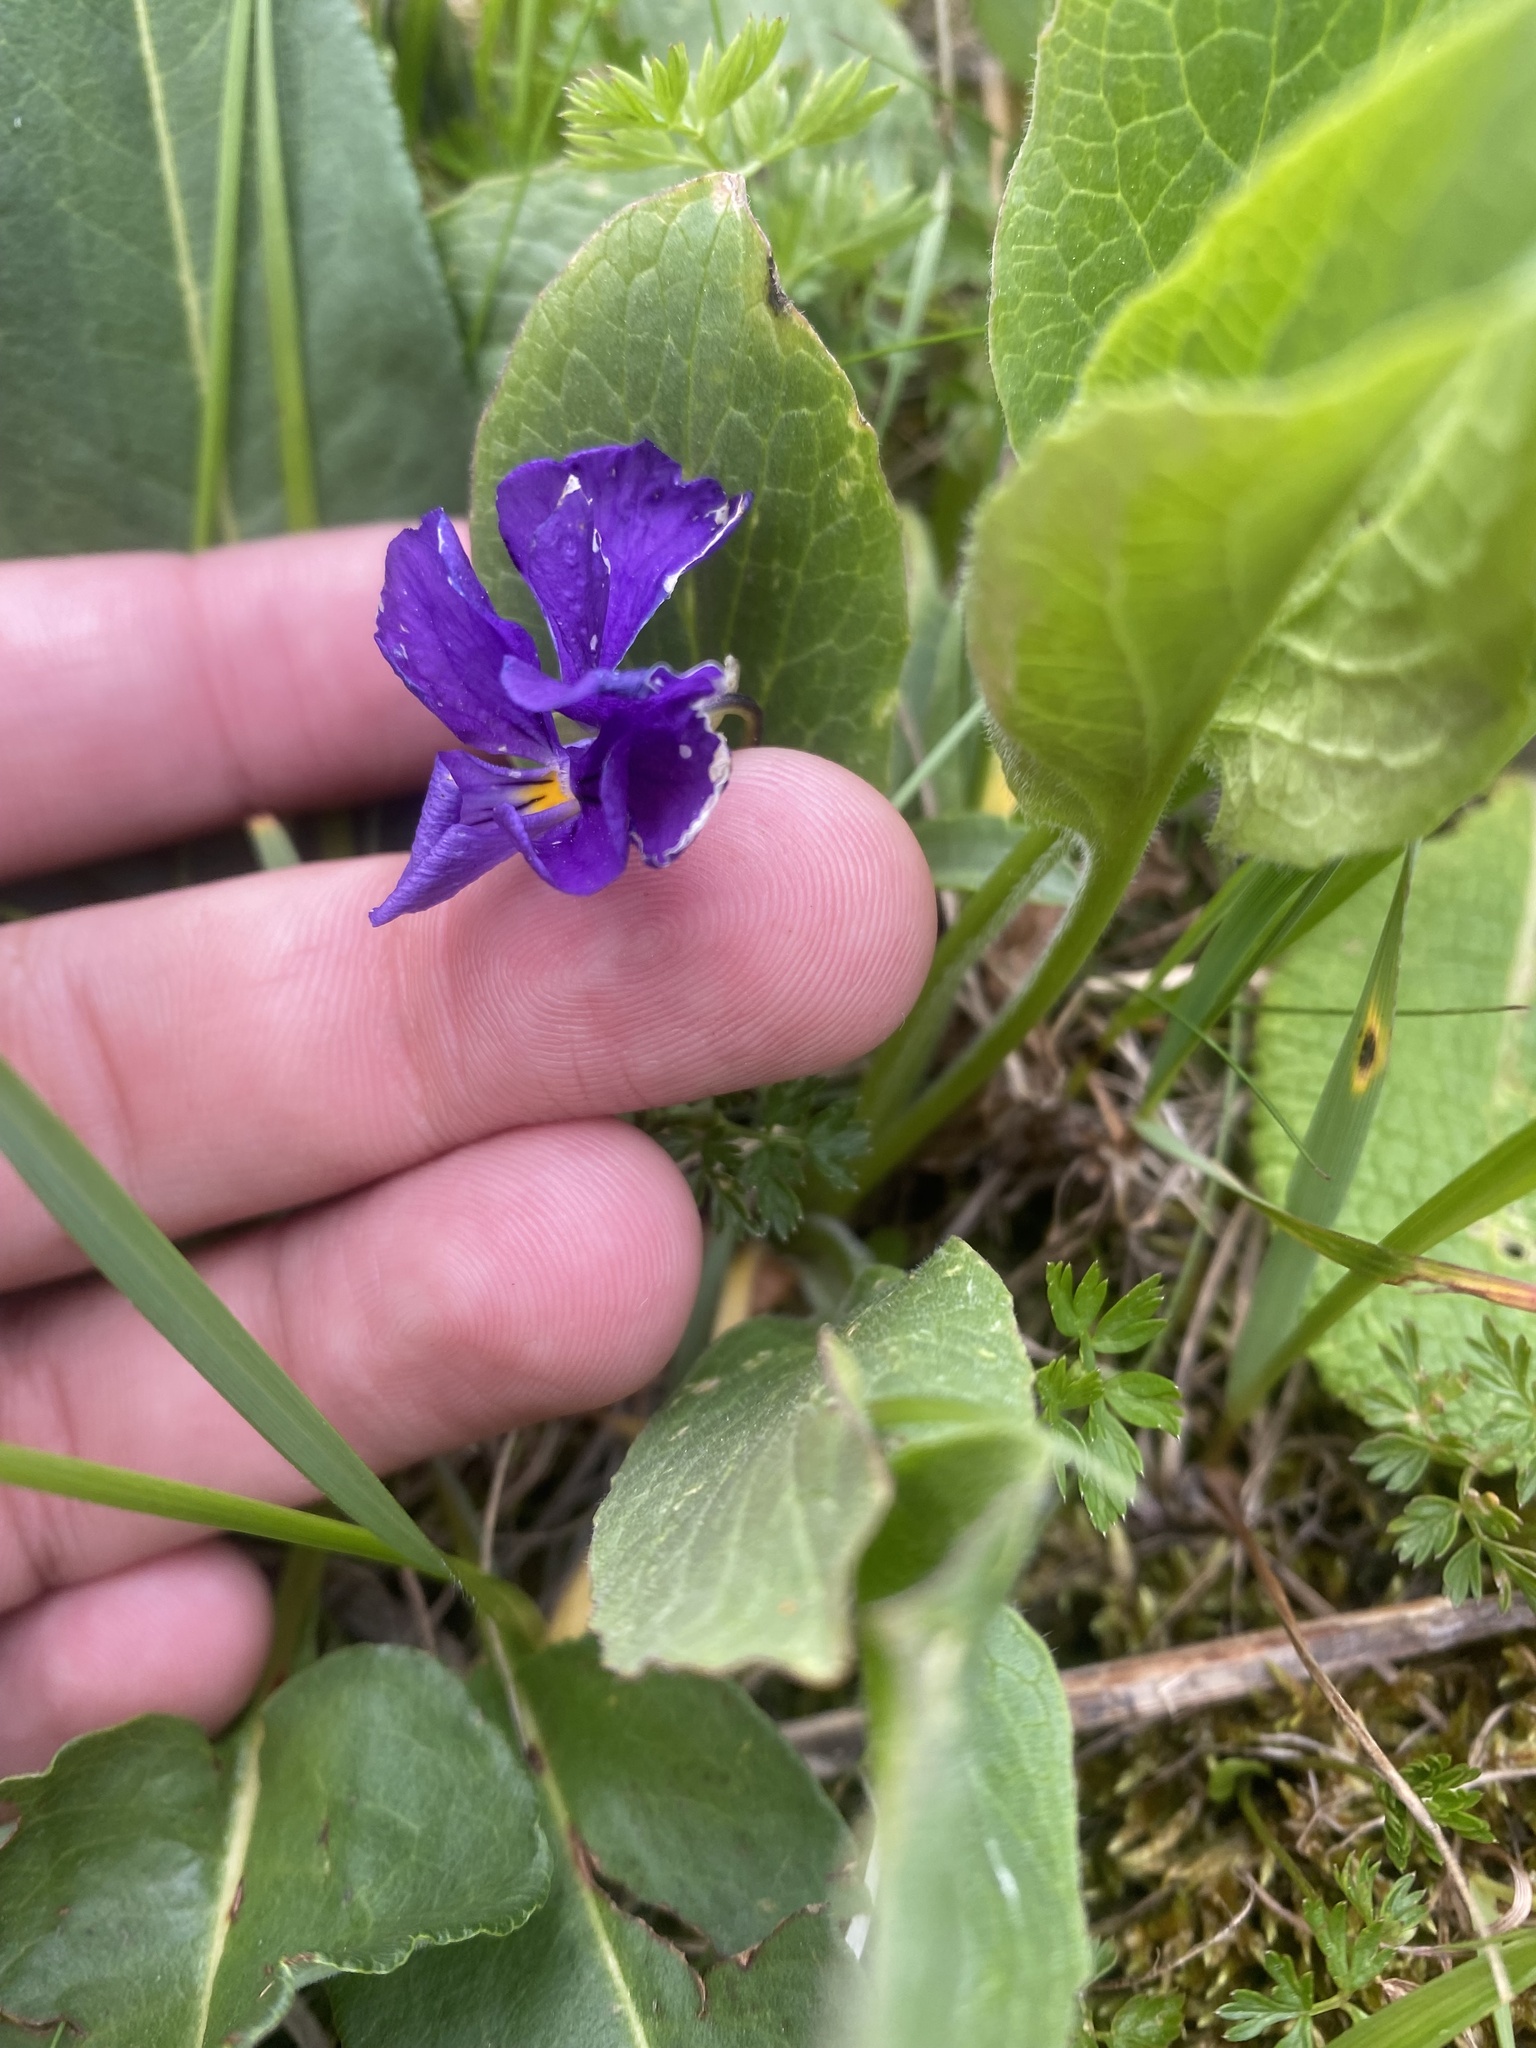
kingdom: Plantae
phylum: Tracheophyta
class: Magnoliopsida
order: Malpighiales
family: Violaceae
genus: Viola
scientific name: Viola oreades
